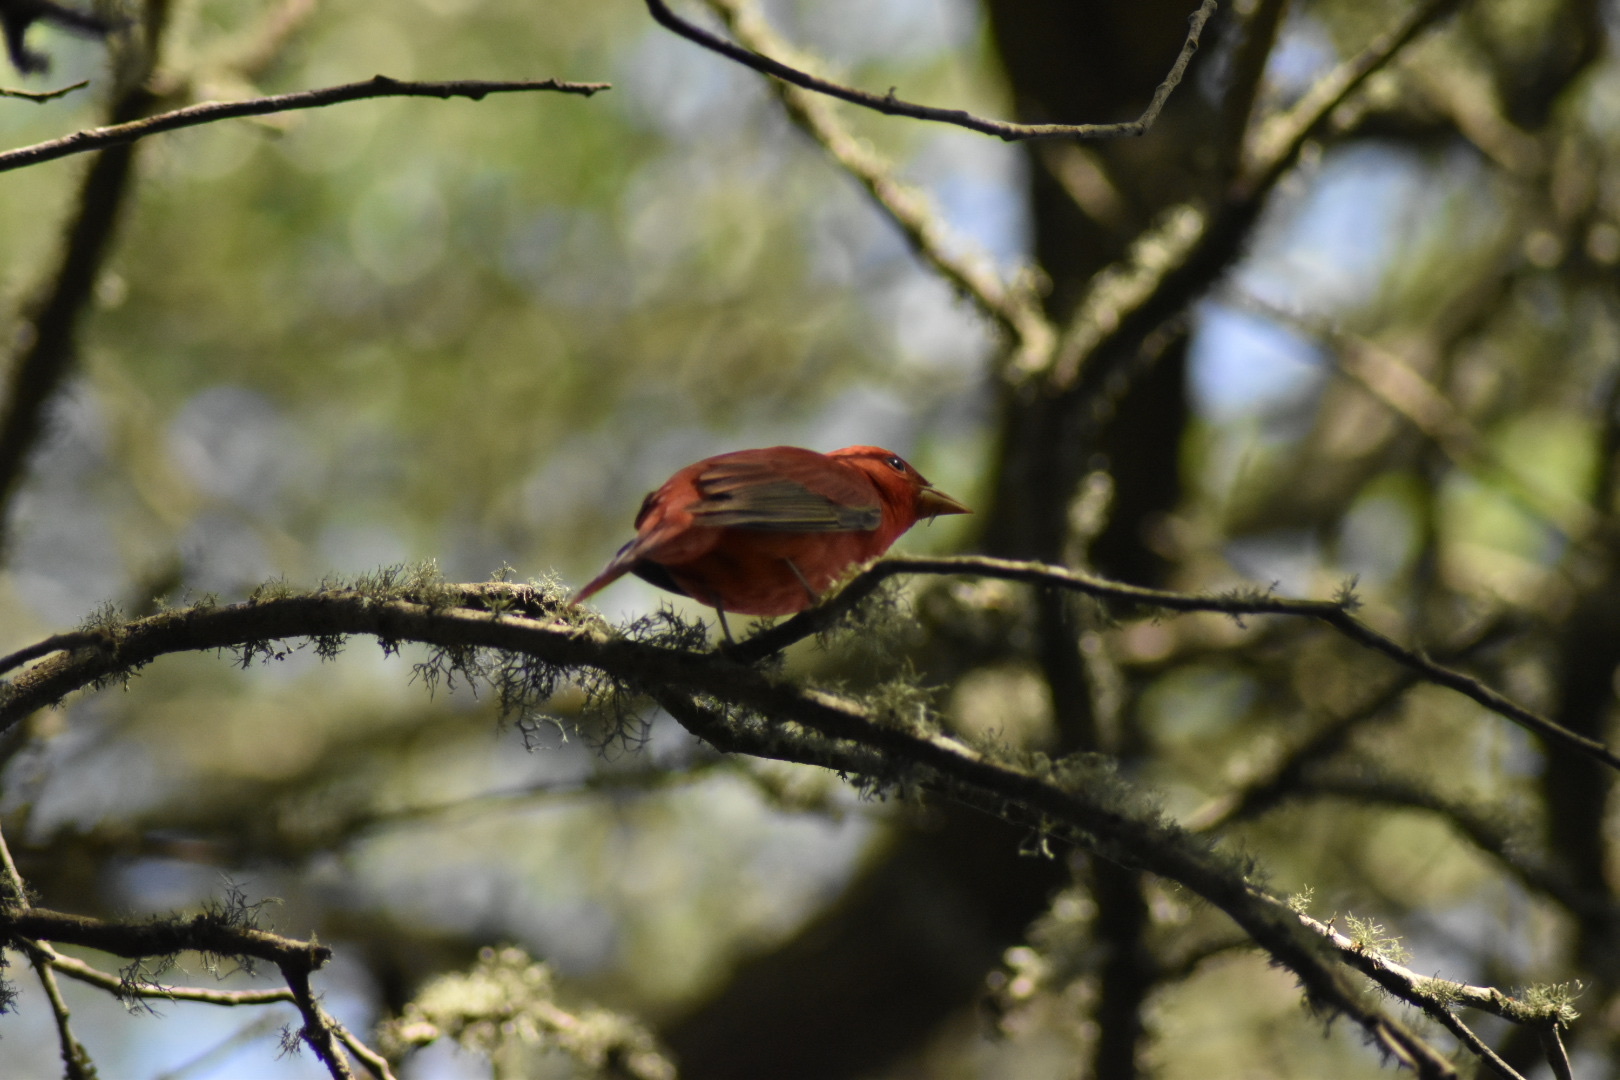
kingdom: Animalia
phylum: Chordata
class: Aves
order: Passeriformes
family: Cardinalidae
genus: Piranga
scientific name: Piranga rubra
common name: Summer tanager
